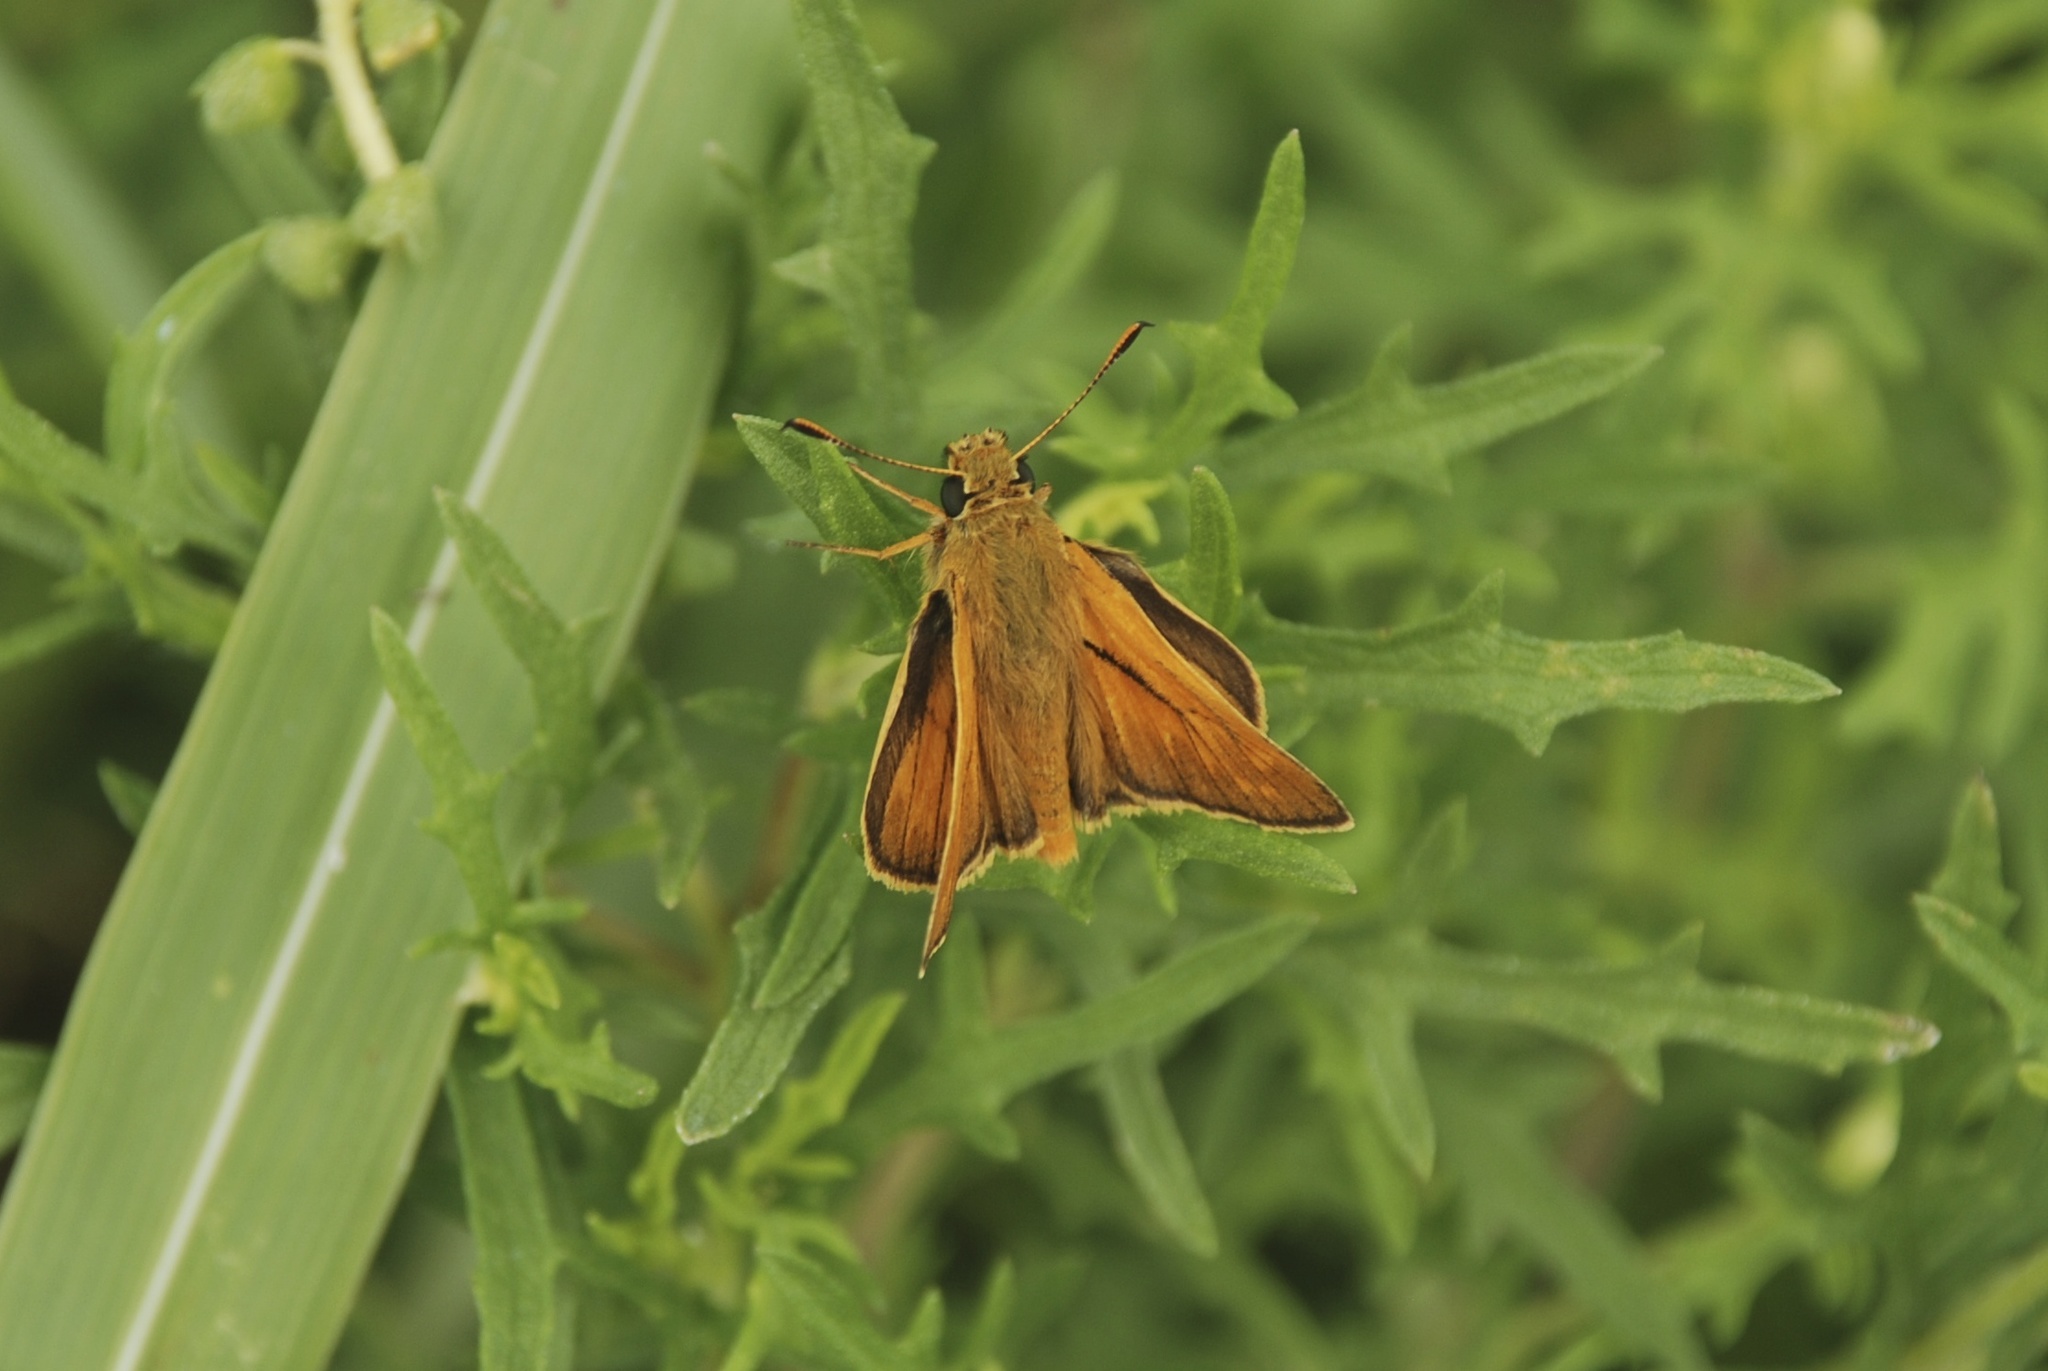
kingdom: Animalia
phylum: Arthropoda
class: Insecta
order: Lepidoptera
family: Hesperiidae
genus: Ochlodes
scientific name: Ochlodes venata
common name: Large skipper
